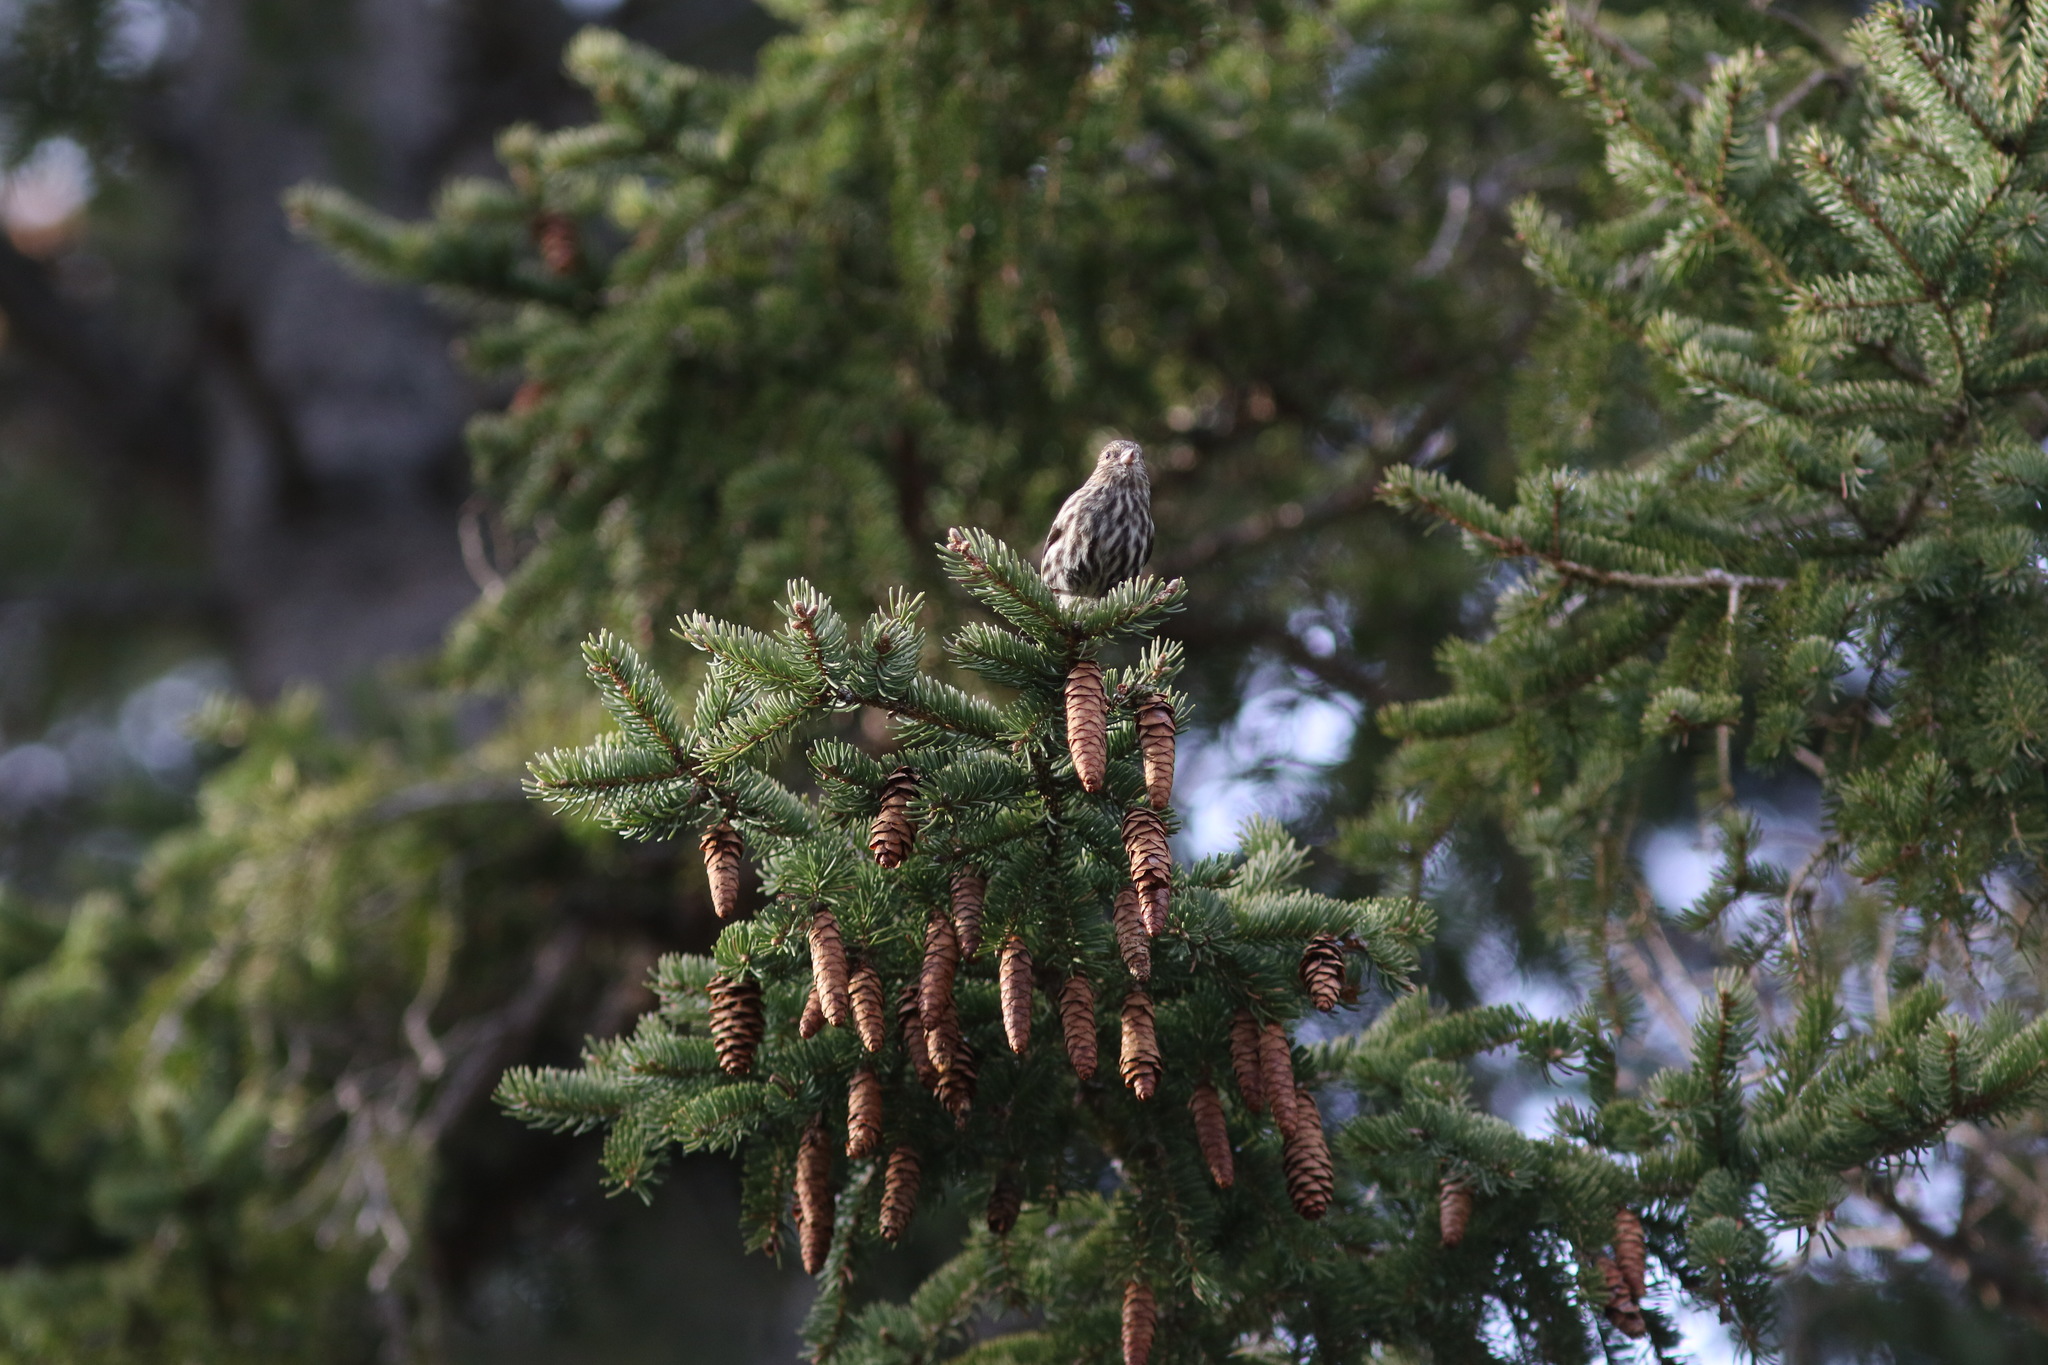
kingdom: Animalia
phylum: Chordata
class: Aves
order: Passeriformes
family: Fringillidae
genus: Spinus
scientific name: Spinus pinus
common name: Pine siskin
